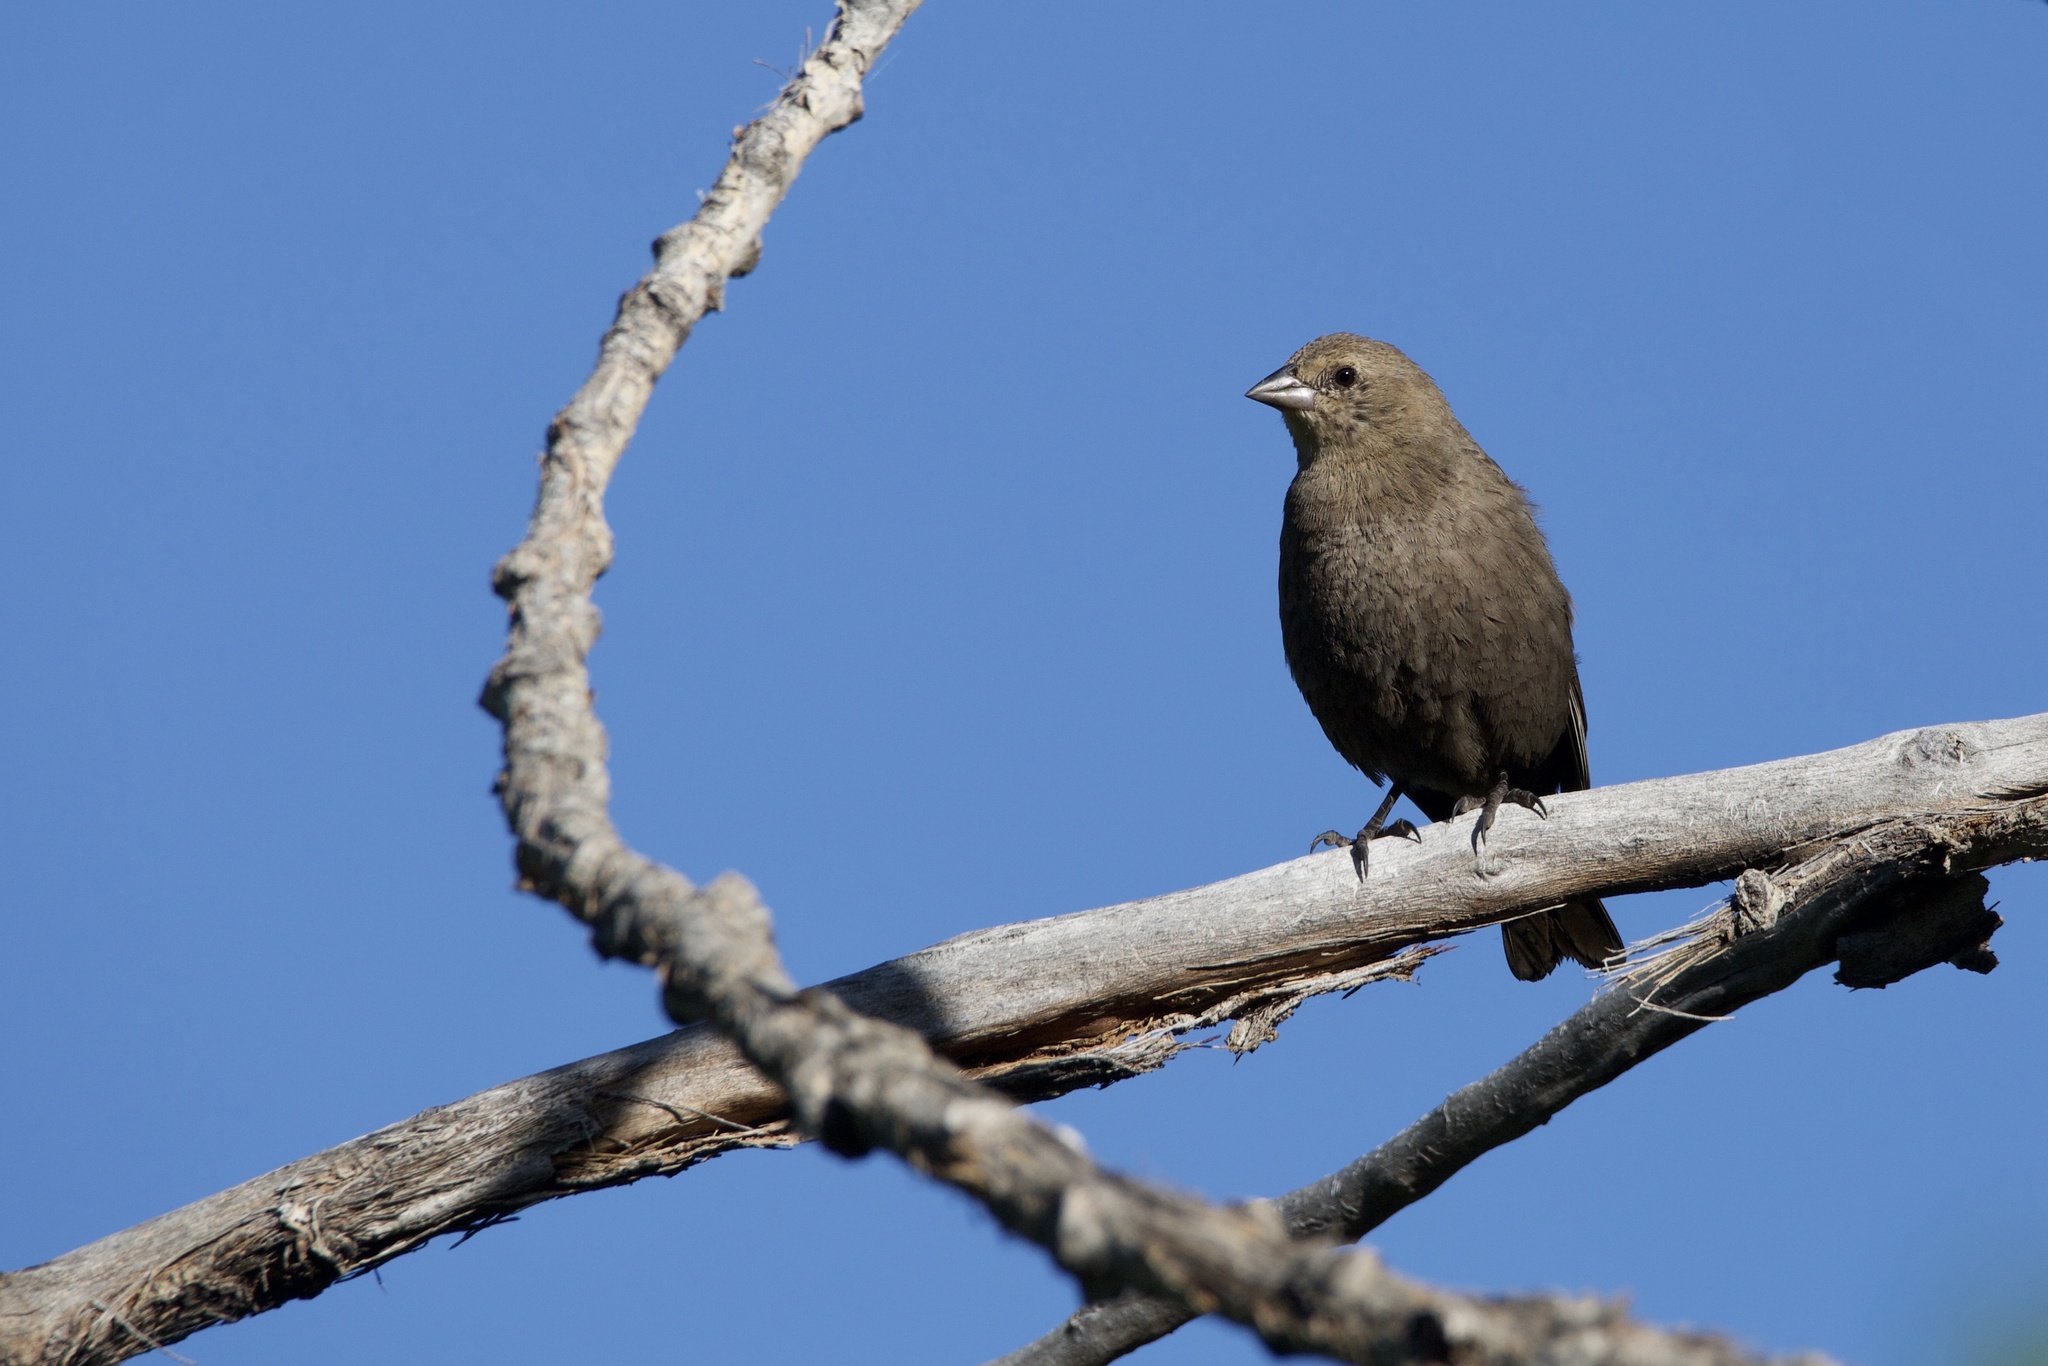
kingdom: Animalia
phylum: Chordata
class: Aves
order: Passeriformes
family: Icteridae
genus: Molothrus
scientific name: Molothrus ater
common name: Brown-headed cowbird
